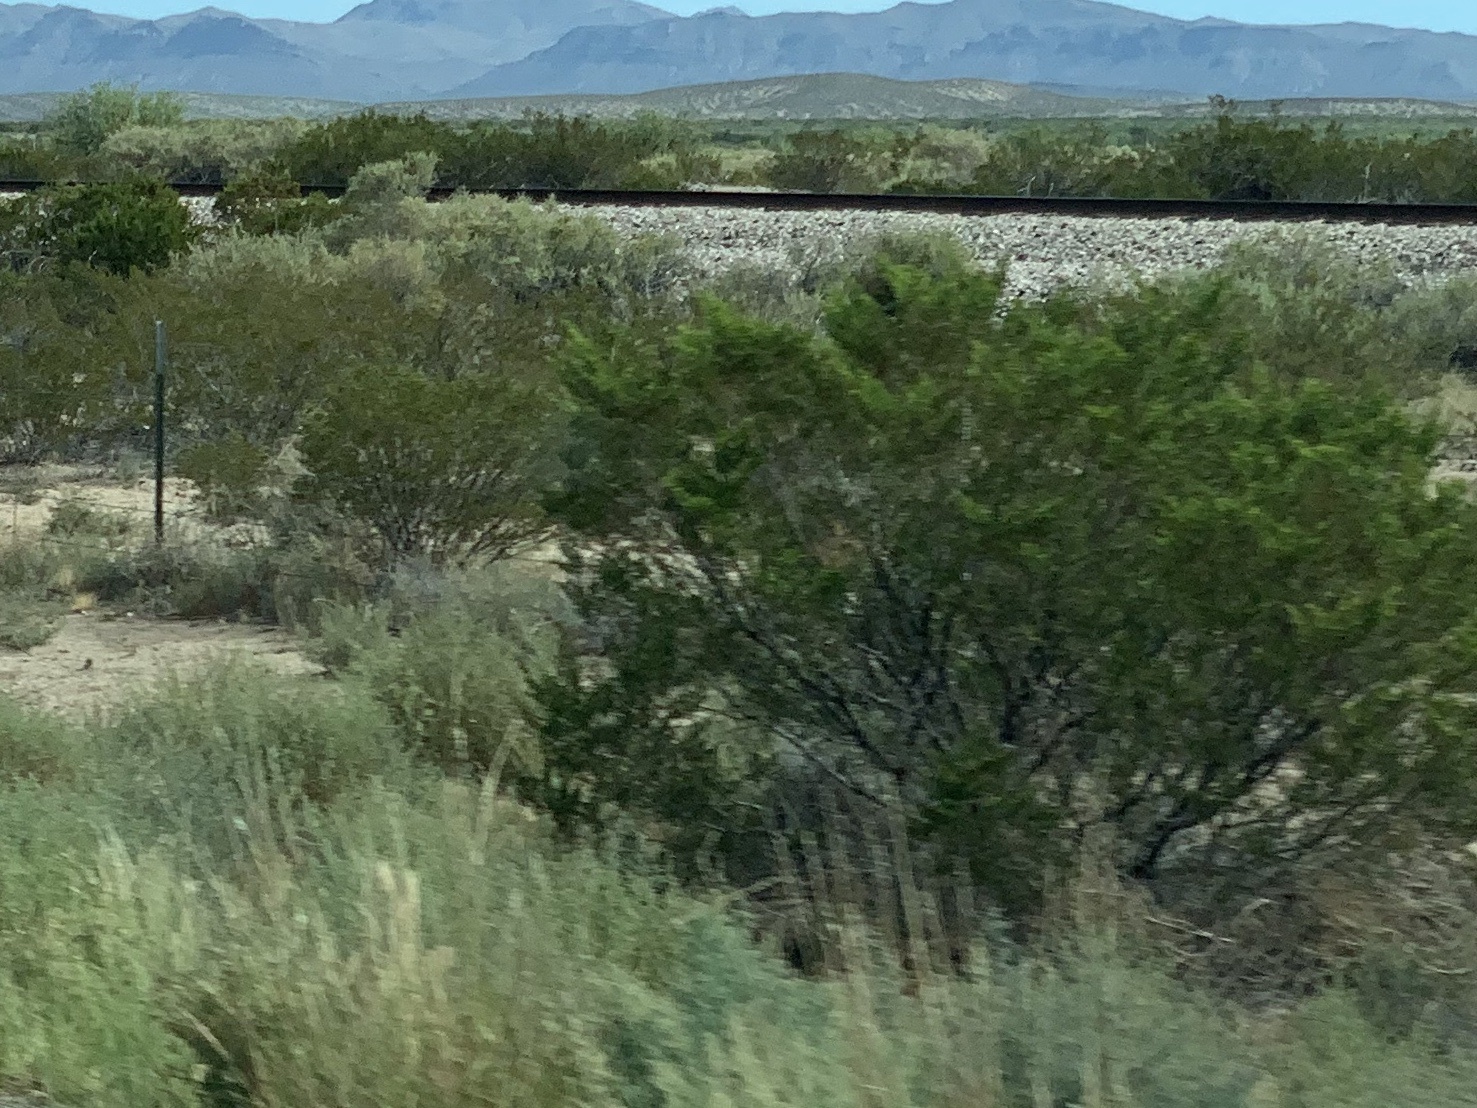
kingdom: Plantae
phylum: Tracheophyta
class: Magnoliopsida
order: Zygophyllales
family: Zygophyllaceae
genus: Larrea
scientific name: Larrea tridentata
